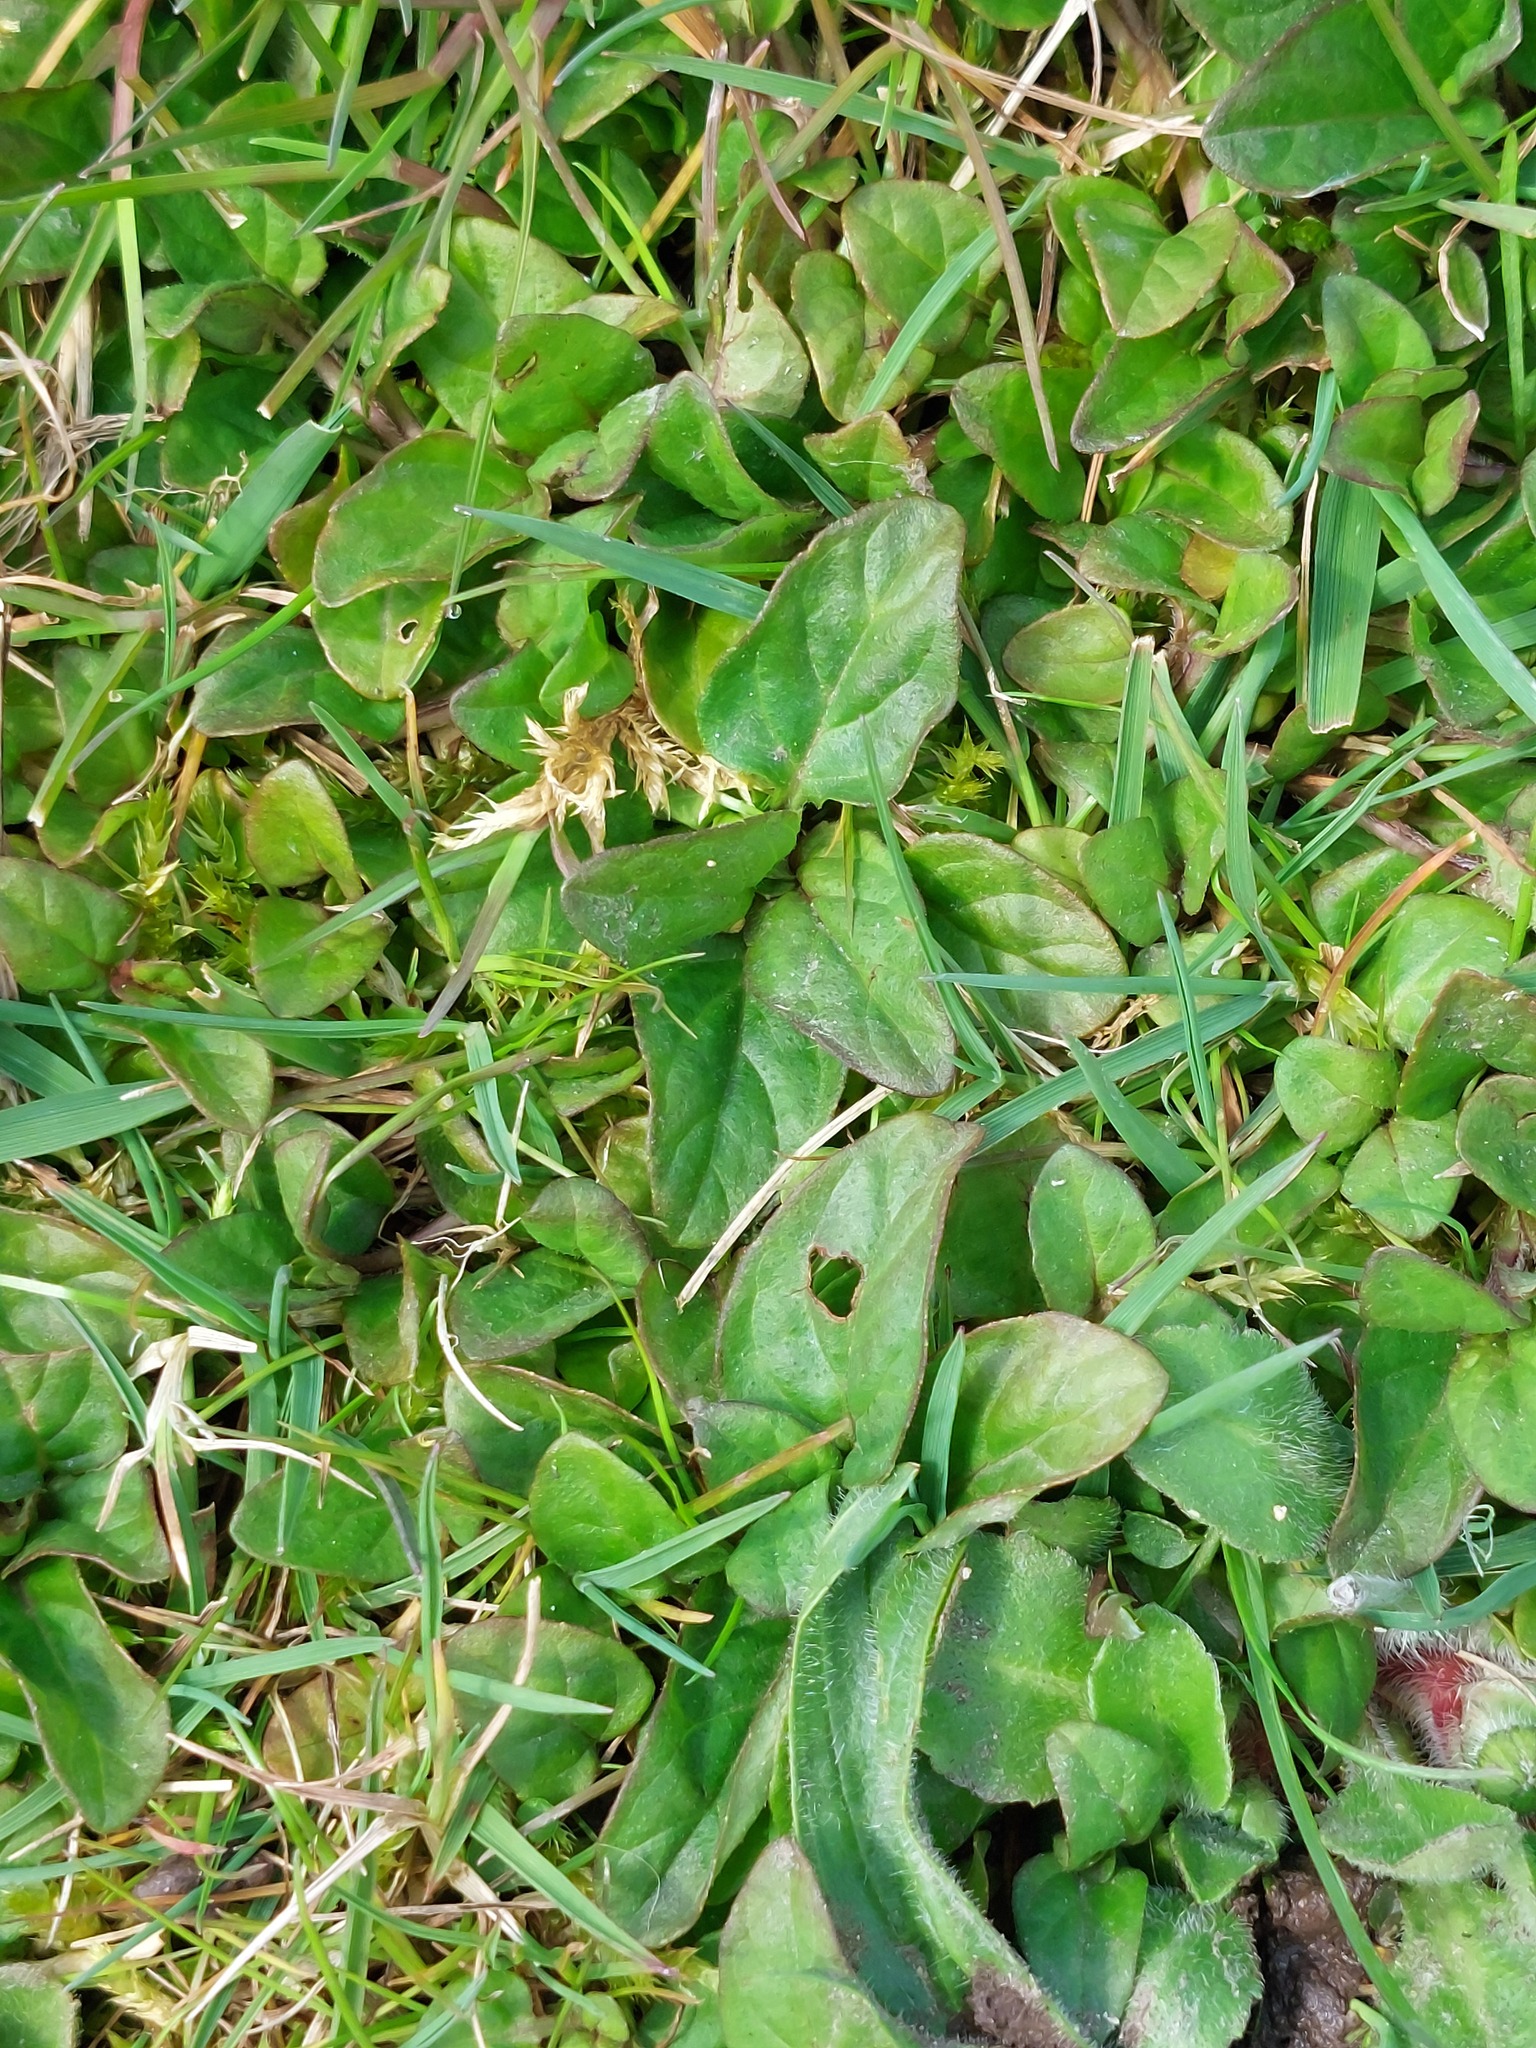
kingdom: Plantae
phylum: Tracheophyta
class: Magnoliopsida
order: Lamiales
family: Lamiaceae
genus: Prunella
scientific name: Prunella vulgaris
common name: Heal-all
